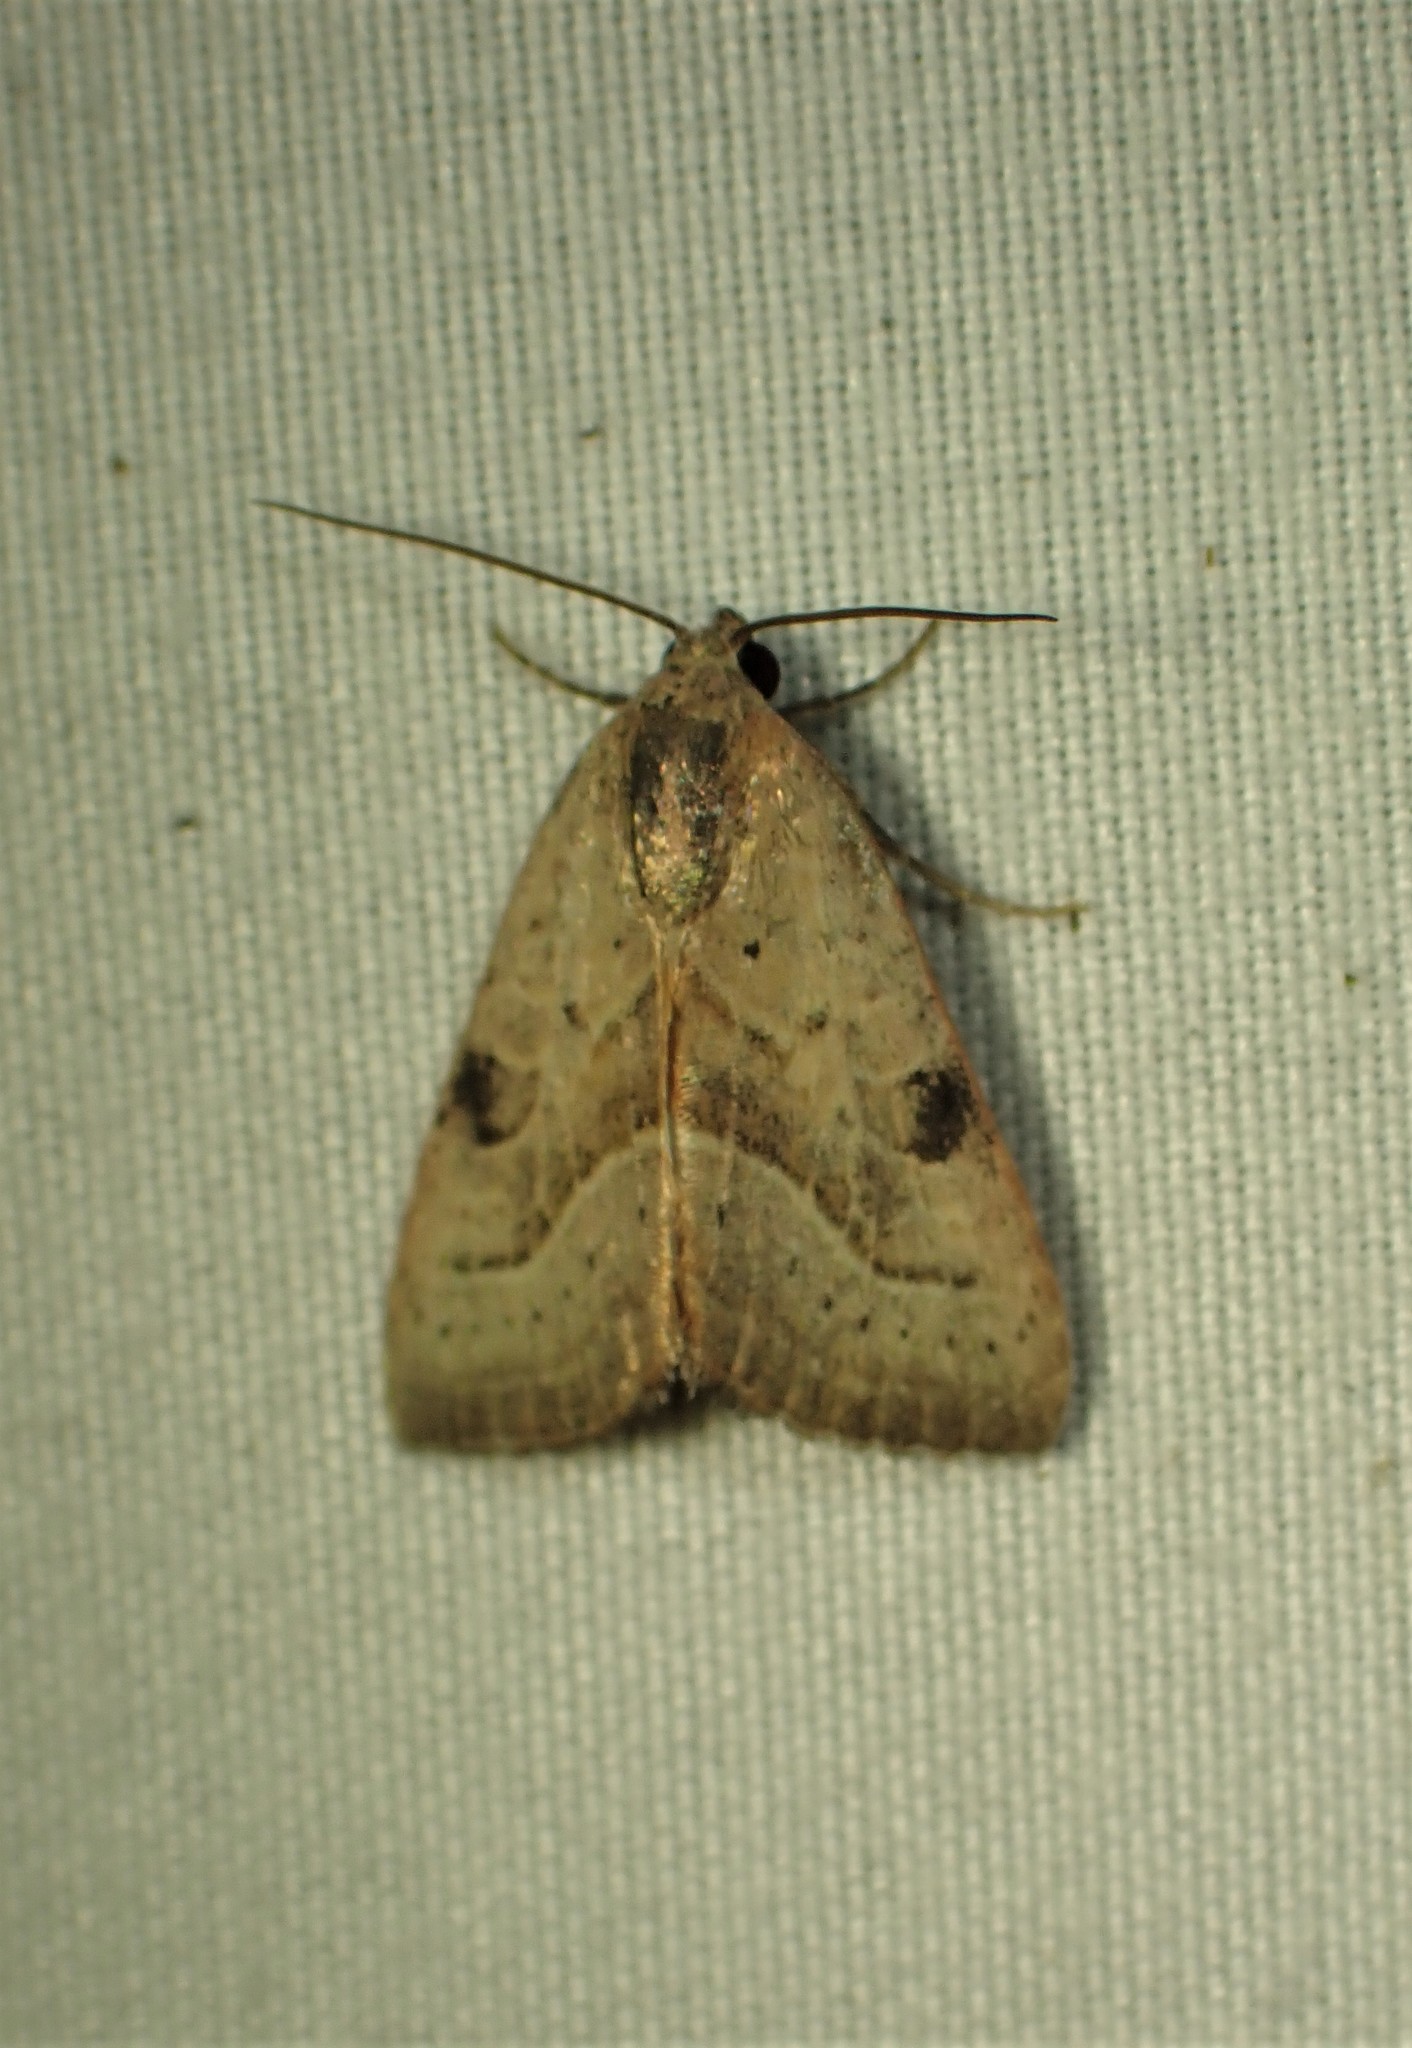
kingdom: Animalia
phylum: Arthropoda
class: Insecta
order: Lepidoptera
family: Noctuidae
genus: Galgula
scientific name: Galgula partita
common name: Wedgeling
